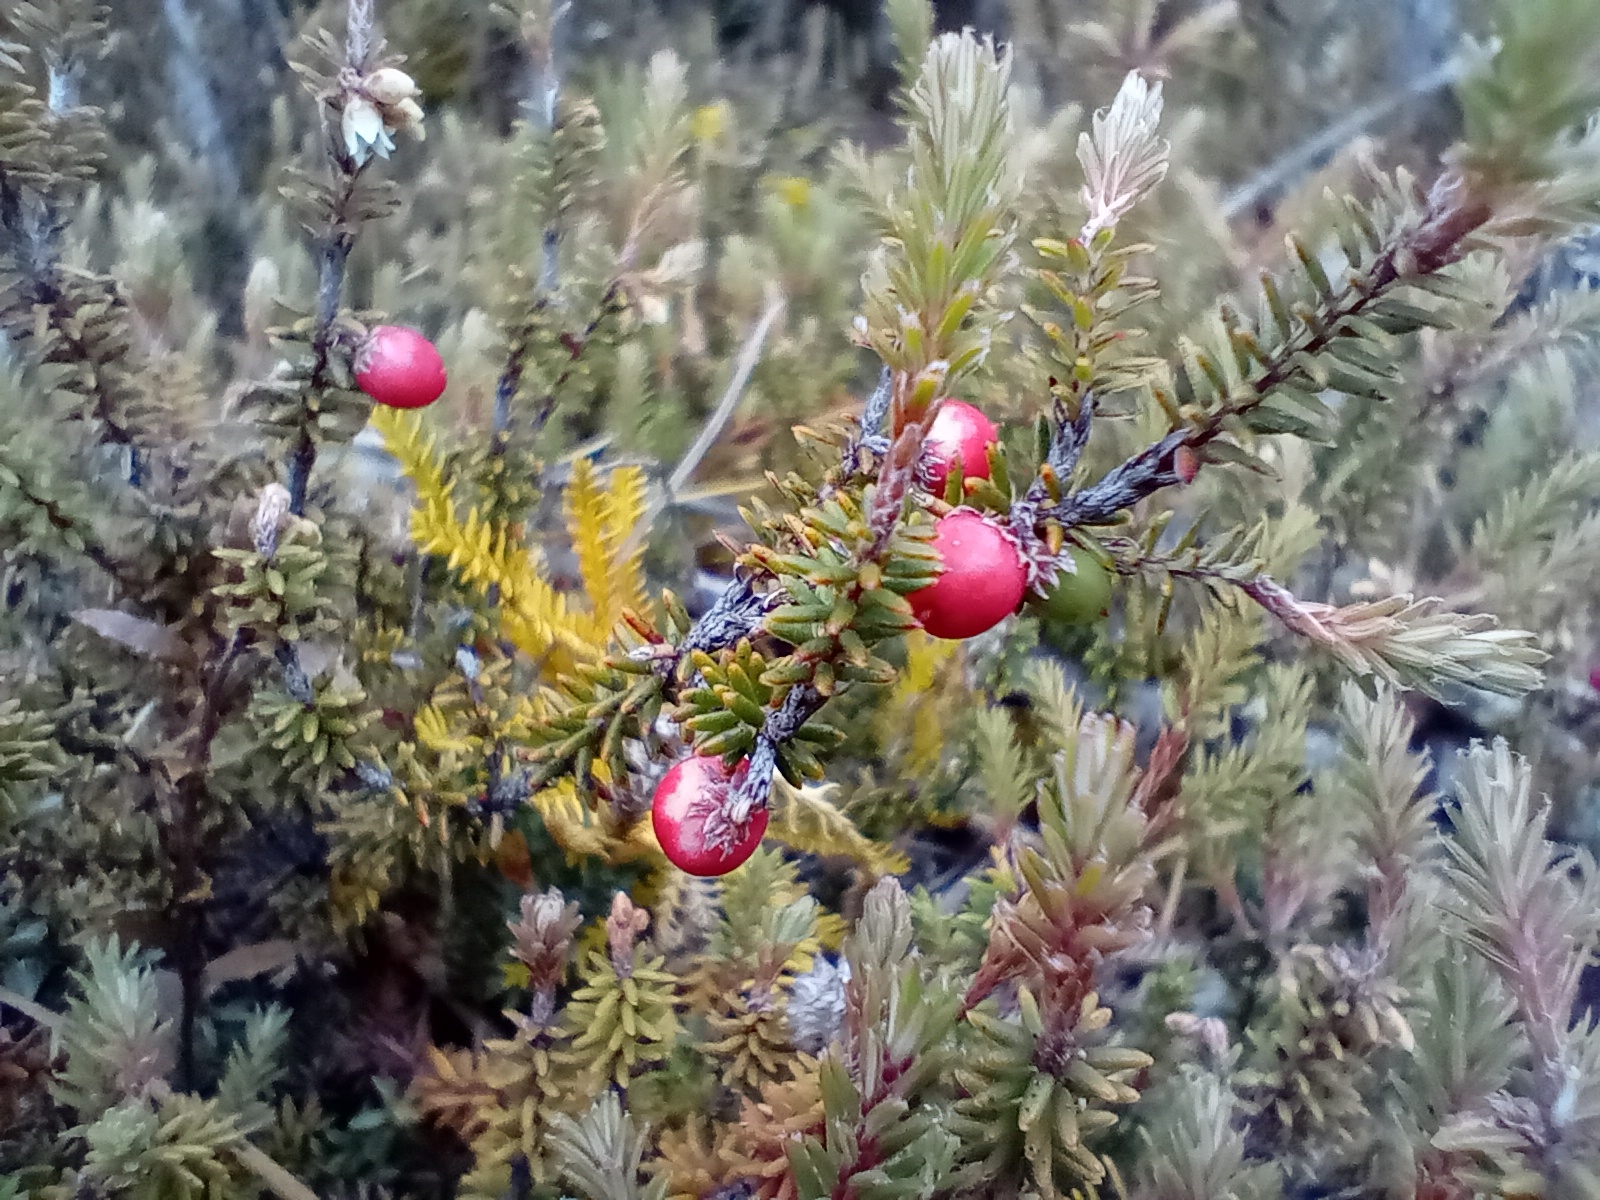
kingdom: Plantae
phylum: Tracheophyta
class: Magnoliopsida
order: Ericales
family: Ericaceae
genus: Androstoma
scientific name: Androstoma empetrifolia
